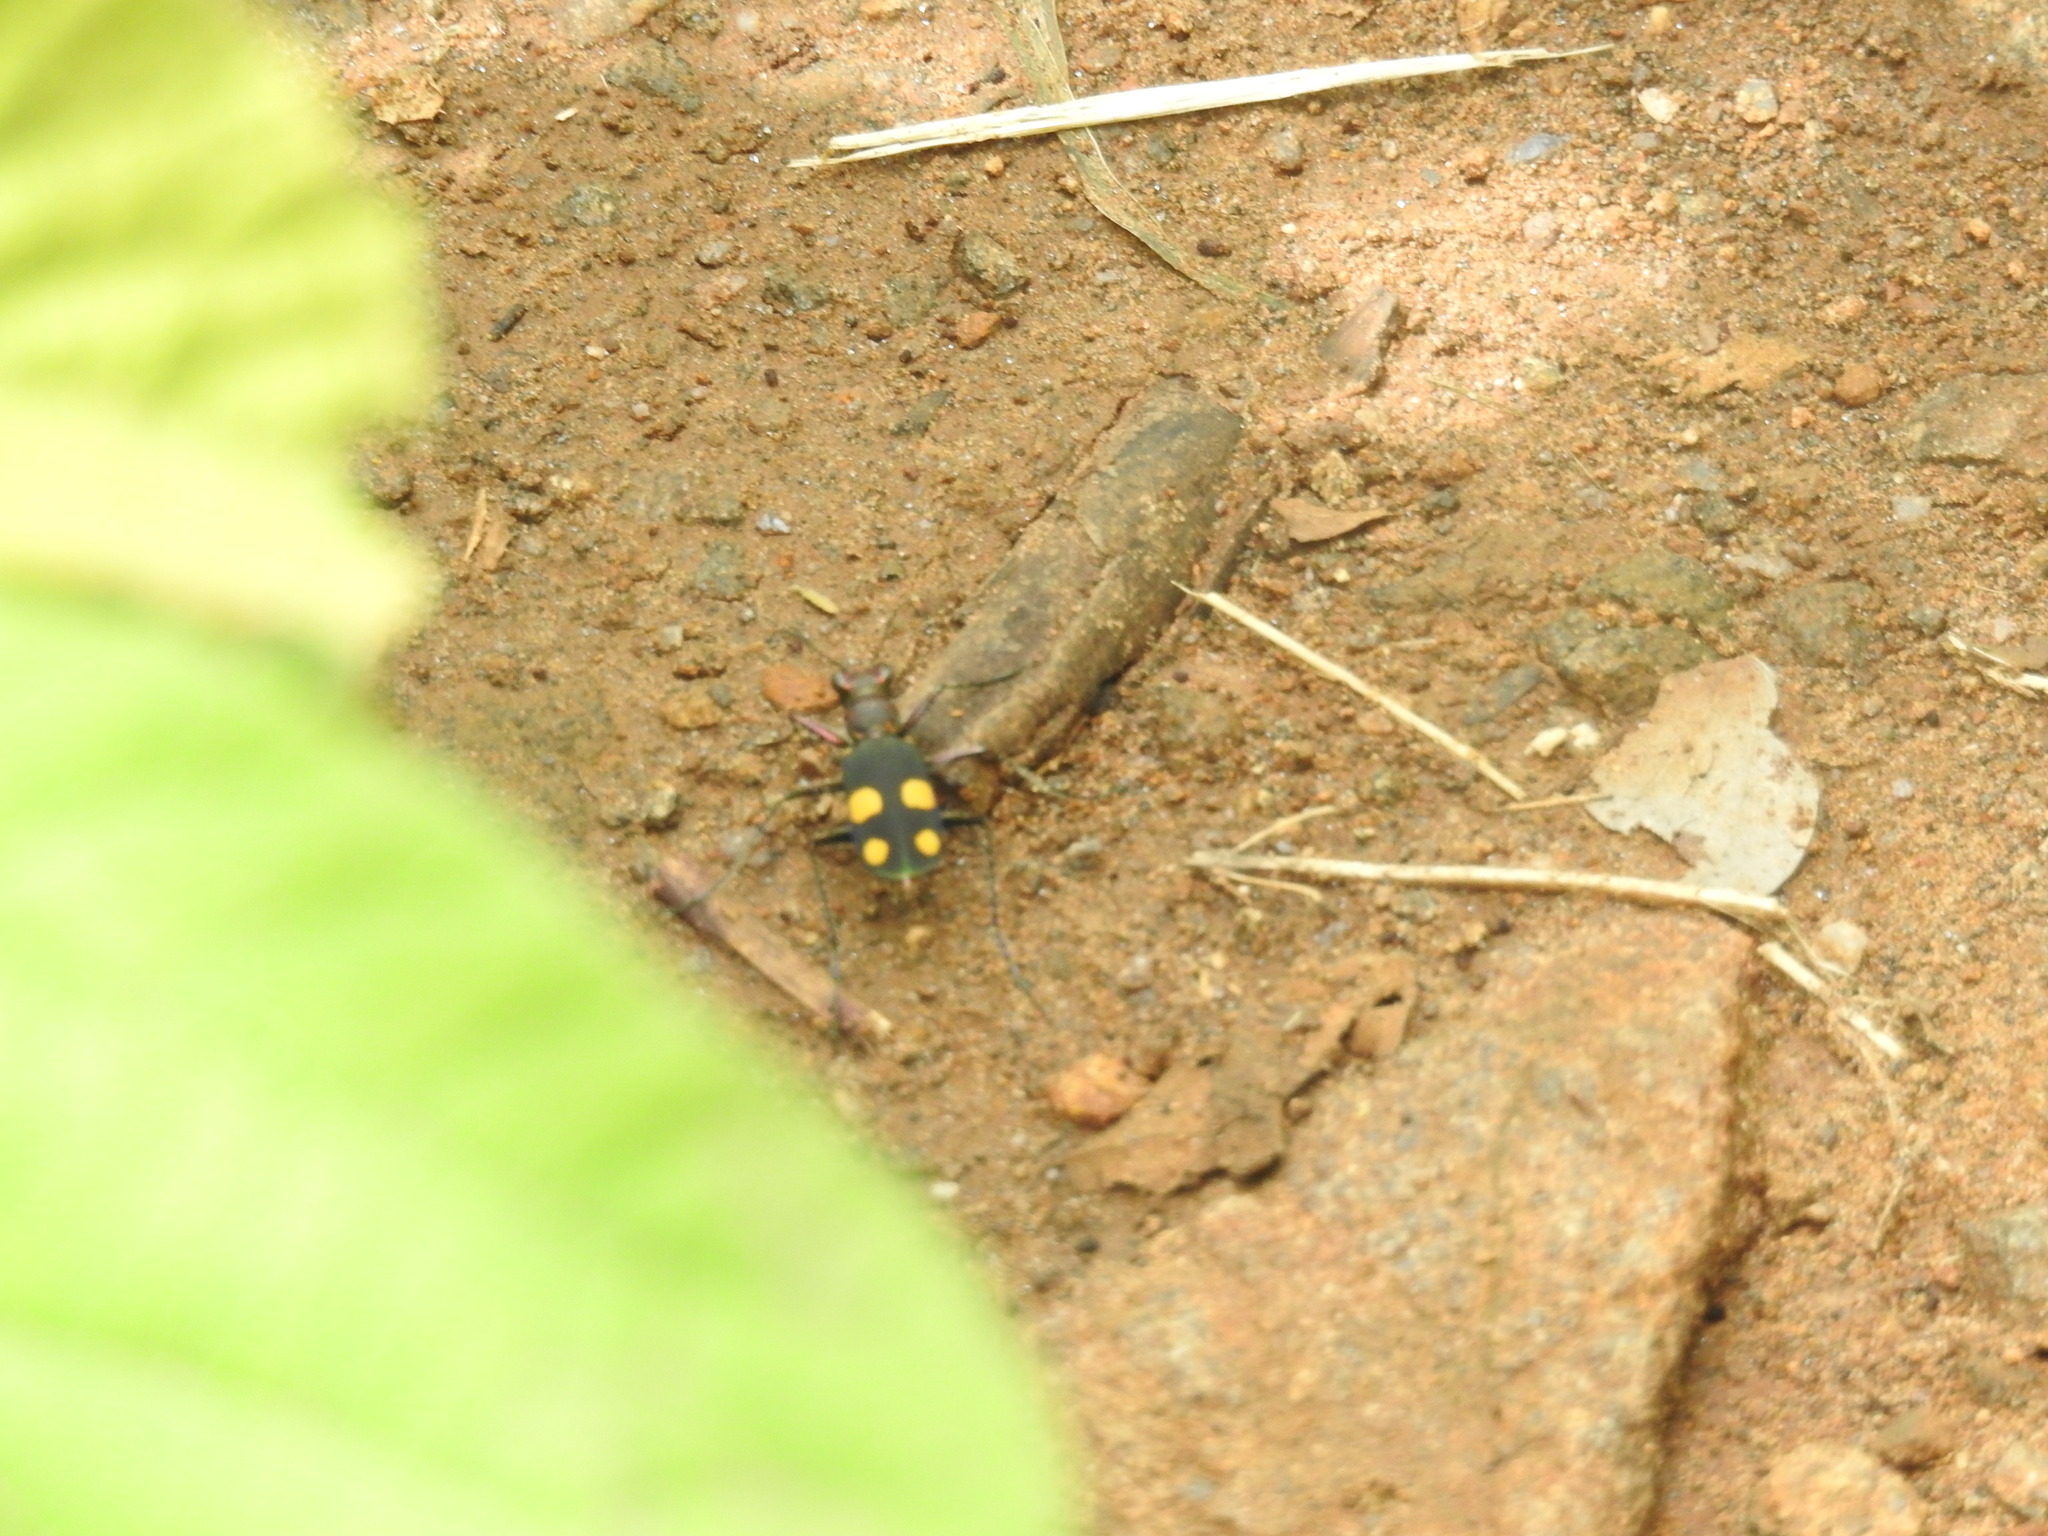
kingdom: Animalia
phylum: Arthropoda
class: Insecta
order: Coleoptera
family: Carabidae
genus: Cicindela
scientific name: Cicindela bicolor
